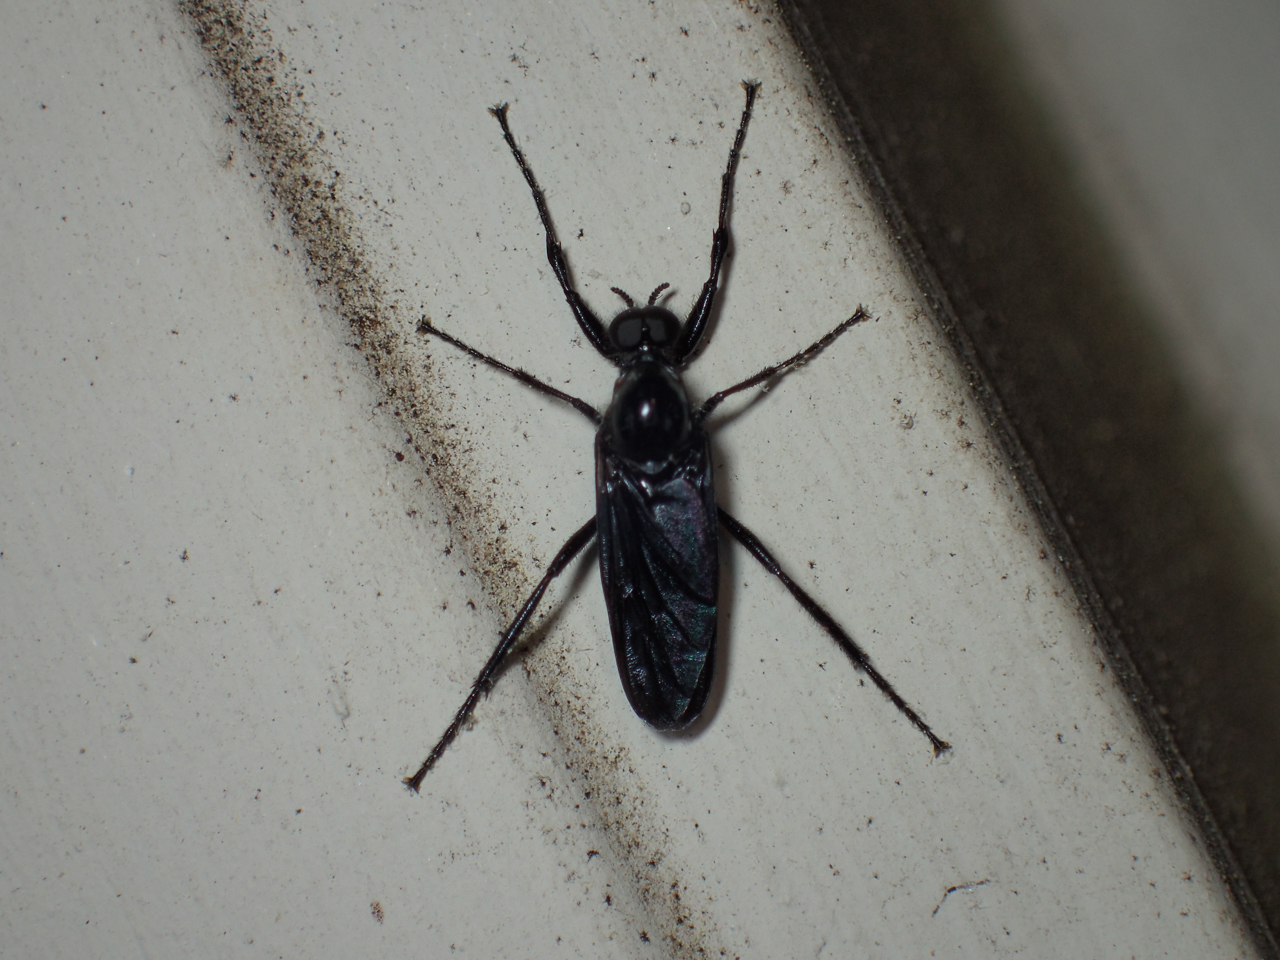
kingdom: Animalia
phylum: Arthropoda
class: Insecta
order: Diptera
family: Bibionidae
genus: Bibio
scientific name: Bibio superfluus
